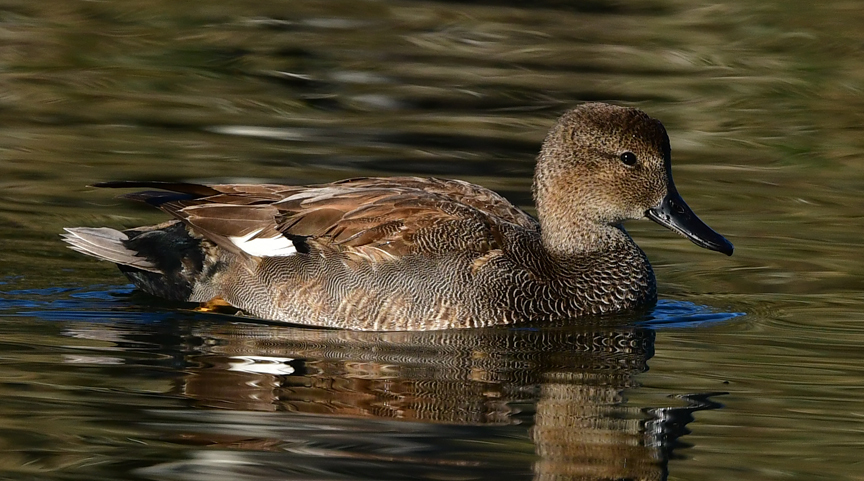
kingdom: Animalia
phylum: Chordata
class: Aves
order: Anseriformes
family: Anatidae
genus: Mareca
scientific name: Mareca strepera
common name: Gadwall
